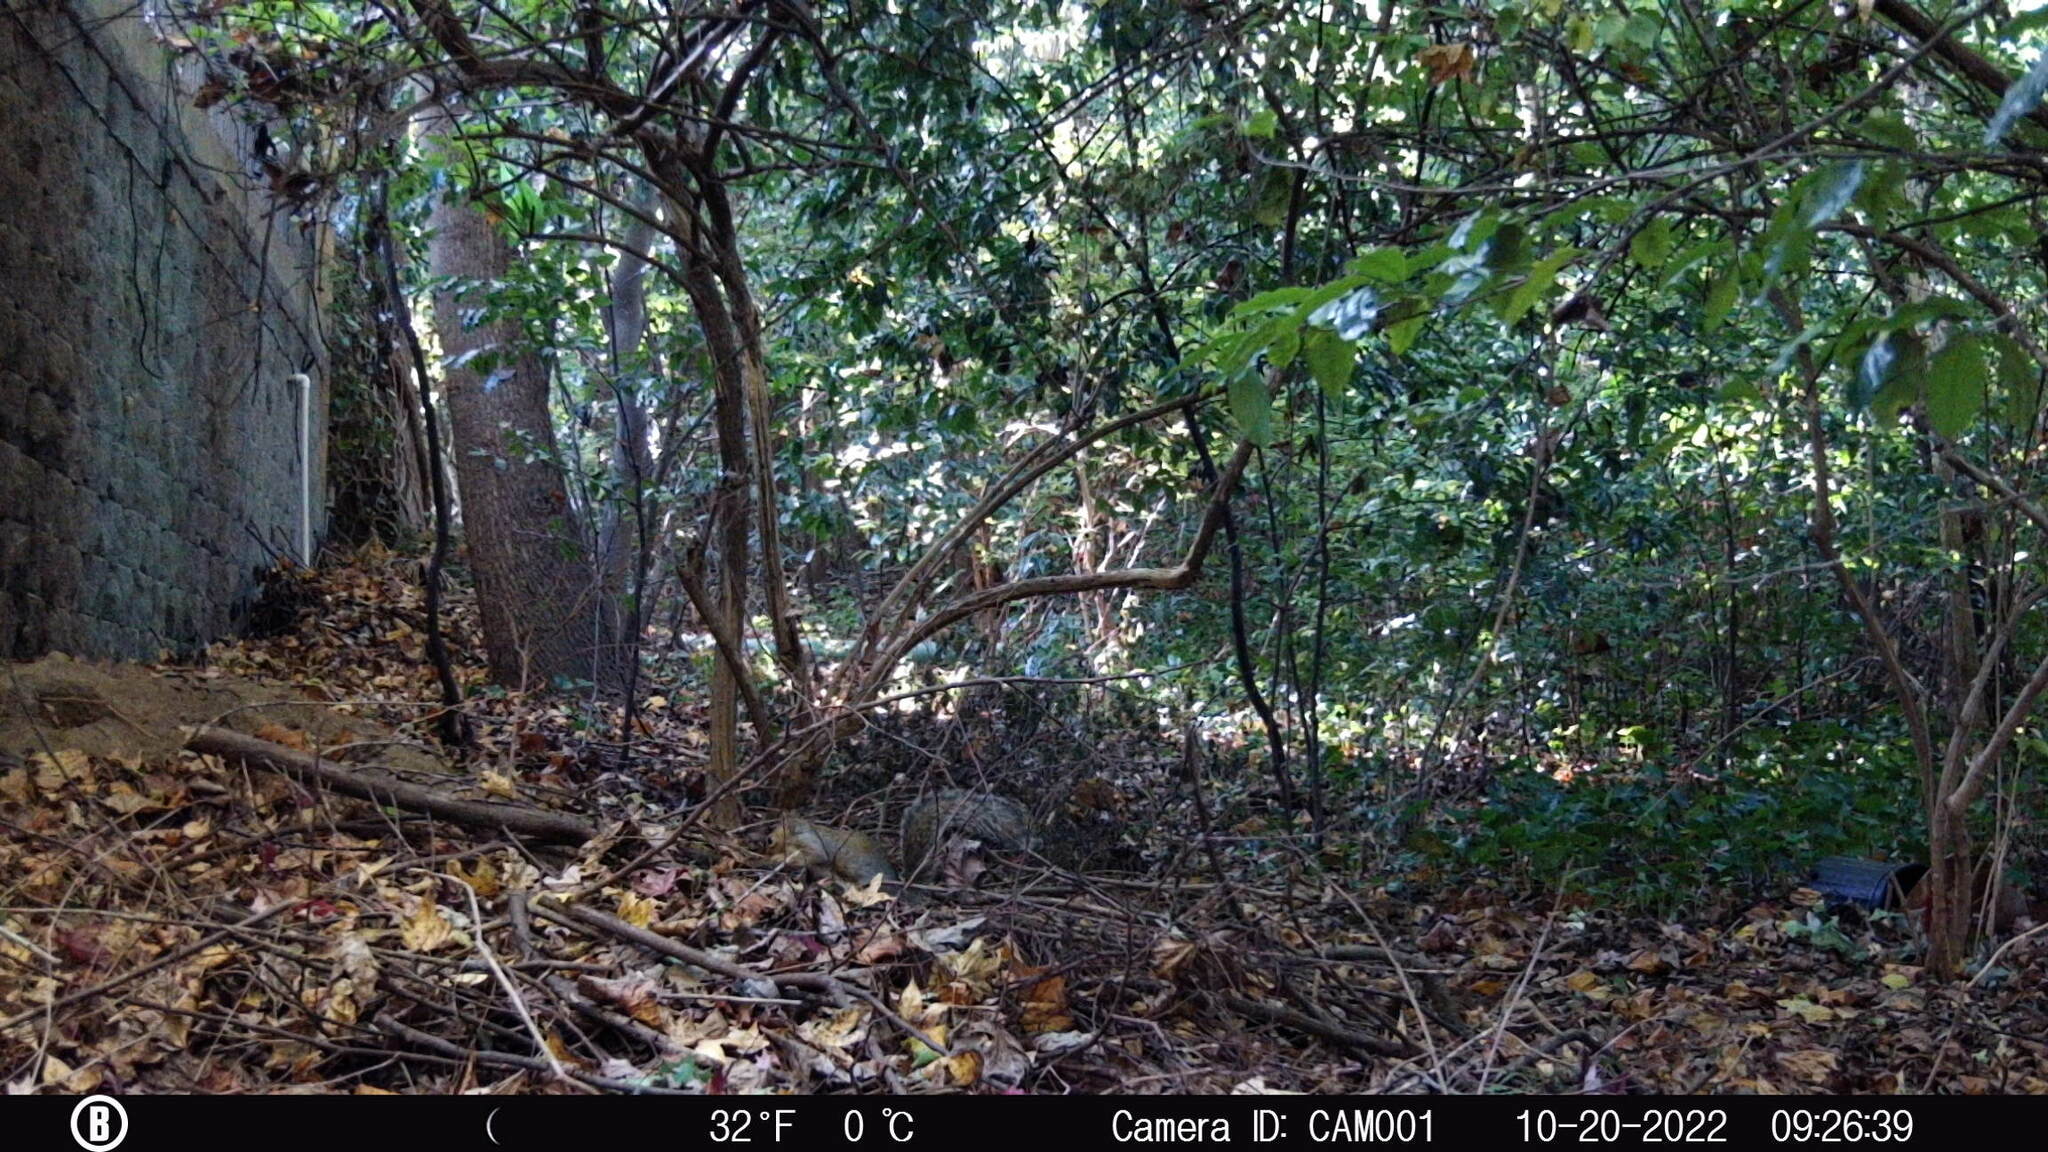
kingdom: Animalia
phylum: Chordata
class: Mammalia
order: Rodentia
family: Sciuridae
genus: Sciurus
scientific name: Sciurus carolinensis
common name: Eastern gray squirrel
